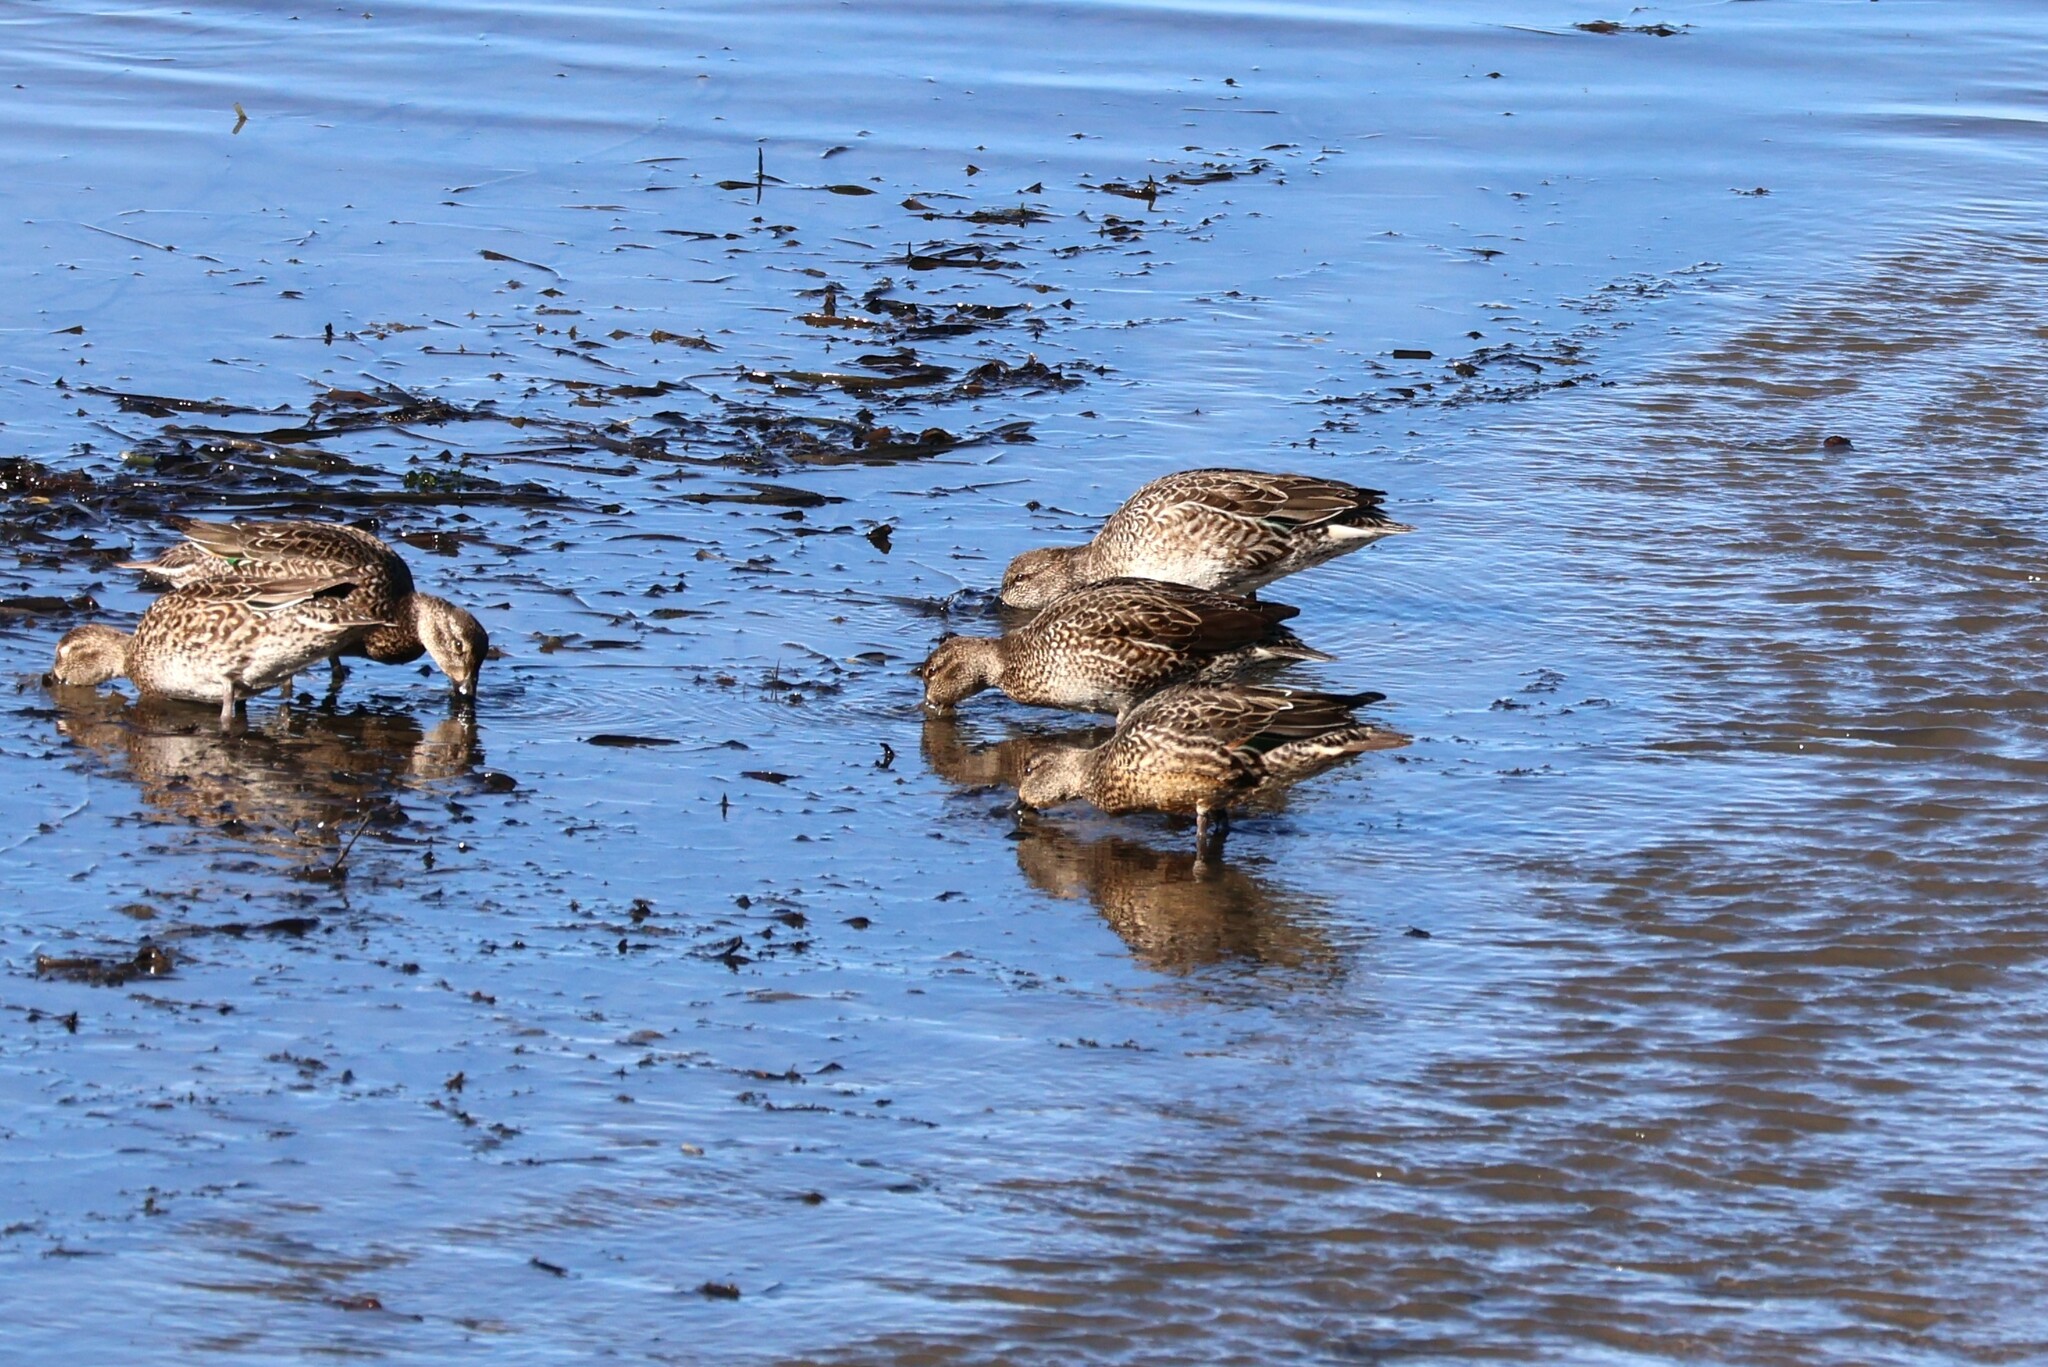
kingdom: Animalia
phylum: Chordata
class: Aves
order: Anseriformes
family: Anatidae
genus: Anas
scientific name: Anas crecca
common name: Eurasian teal
